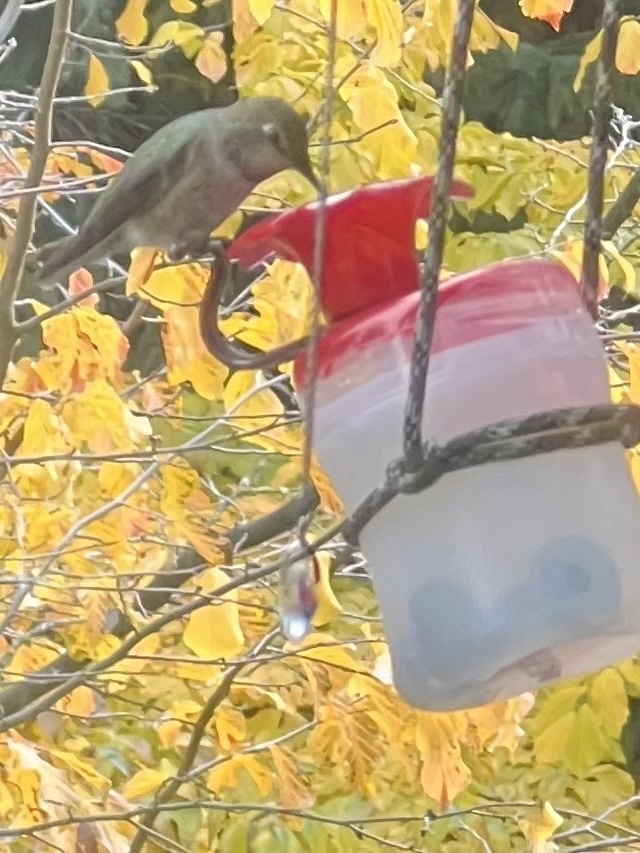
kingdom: Animalia
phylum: Chordata
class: Aves
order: Apodiformes
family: Trochilidae
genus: Calypte
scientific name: Calypte anna
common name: Anna's hummingbird
